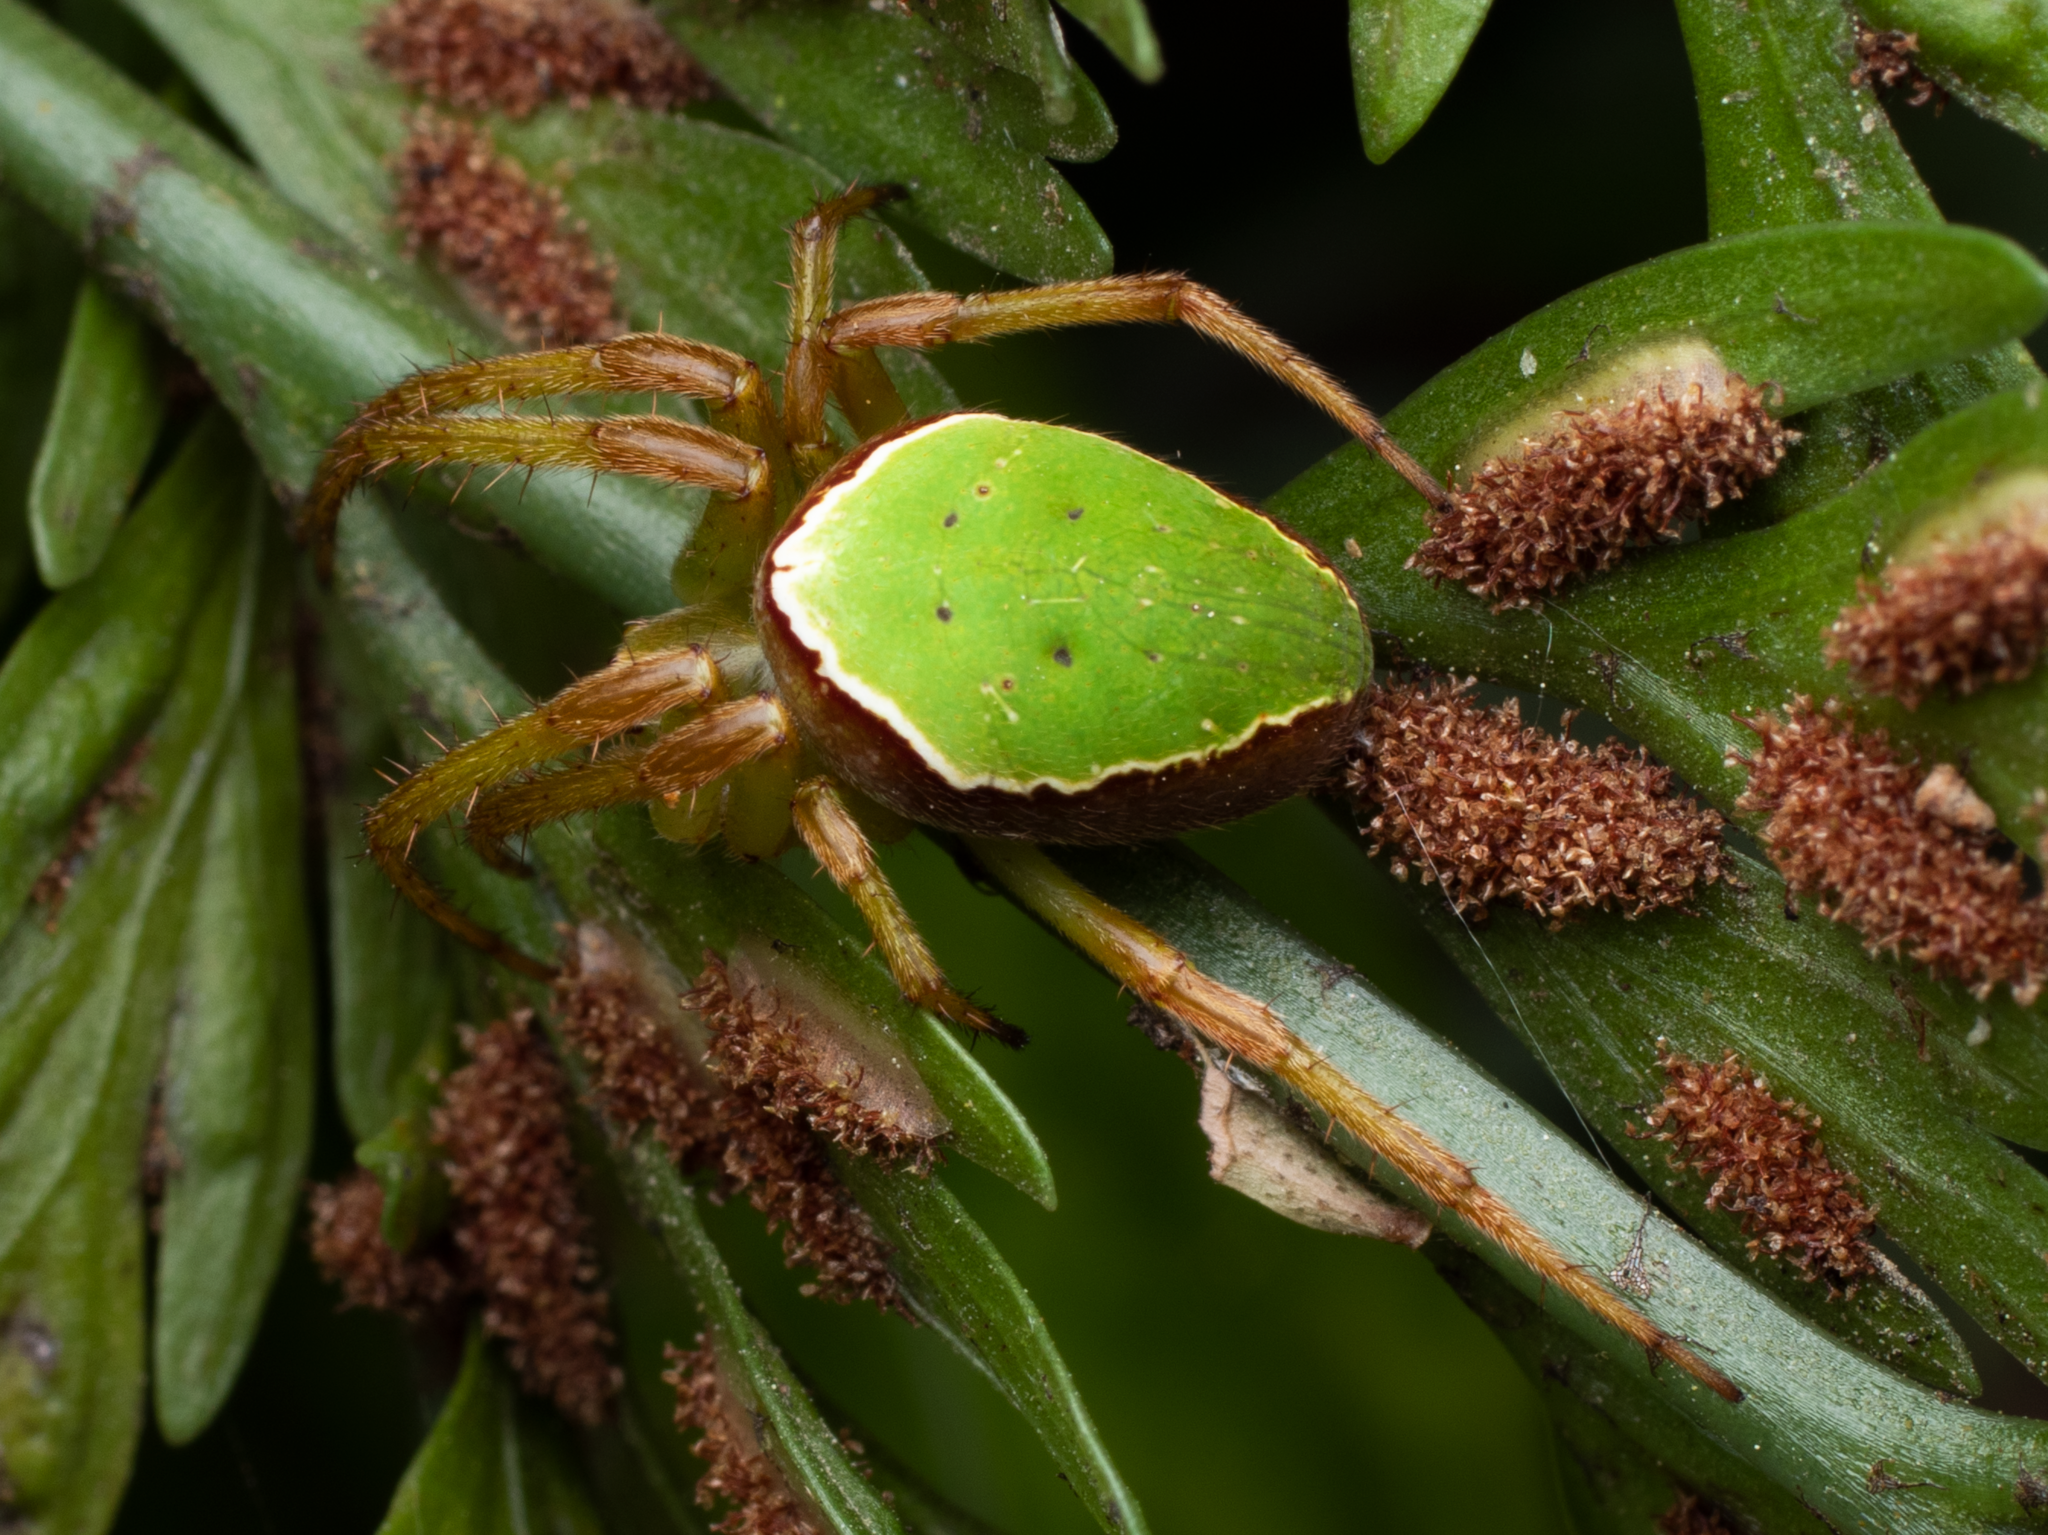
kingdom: Animalia
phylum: Arthropoda
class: Arachnida
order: Araneae
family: Araneidae
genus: Colaranea
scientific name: Colaranea viriditas
